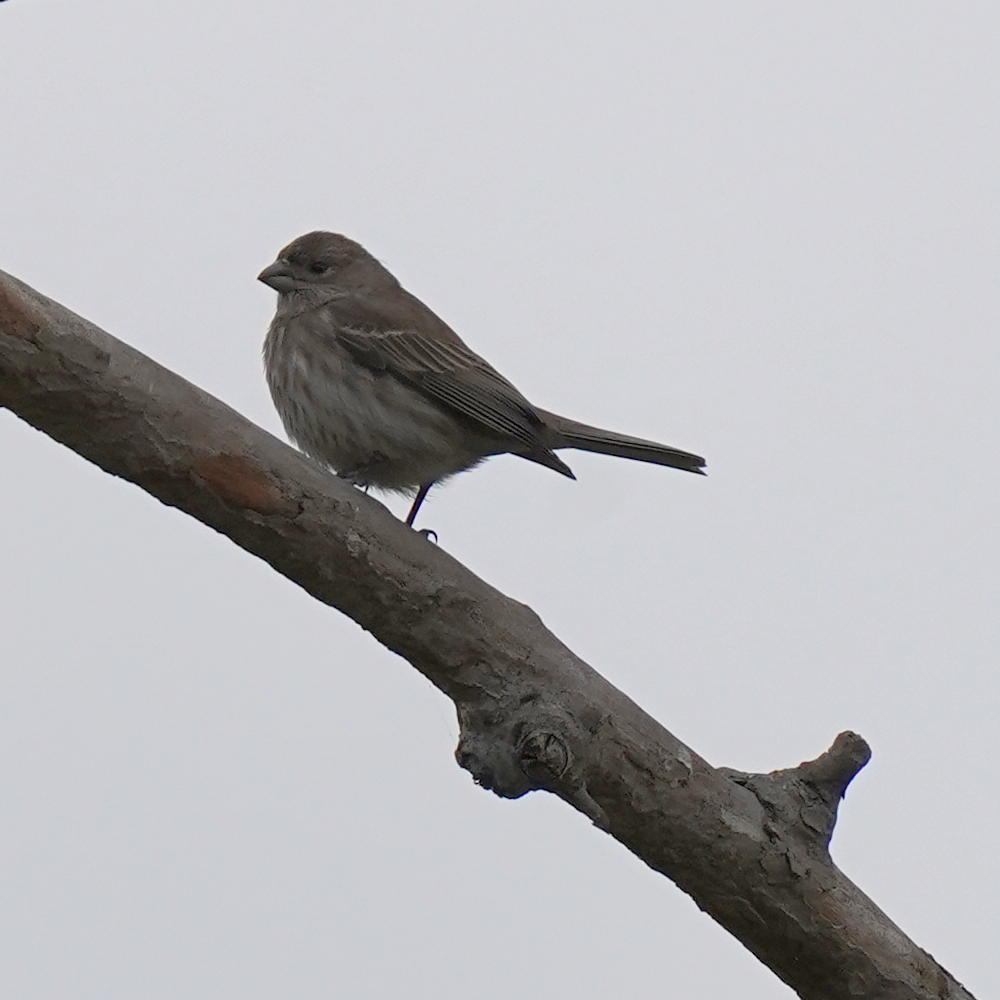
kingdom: Animalia
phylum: Chordata
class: Aves
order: Passeriformes
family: Fringillidae
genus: Haemorhous
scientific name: Haemorhous mexicanus
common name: House finch
